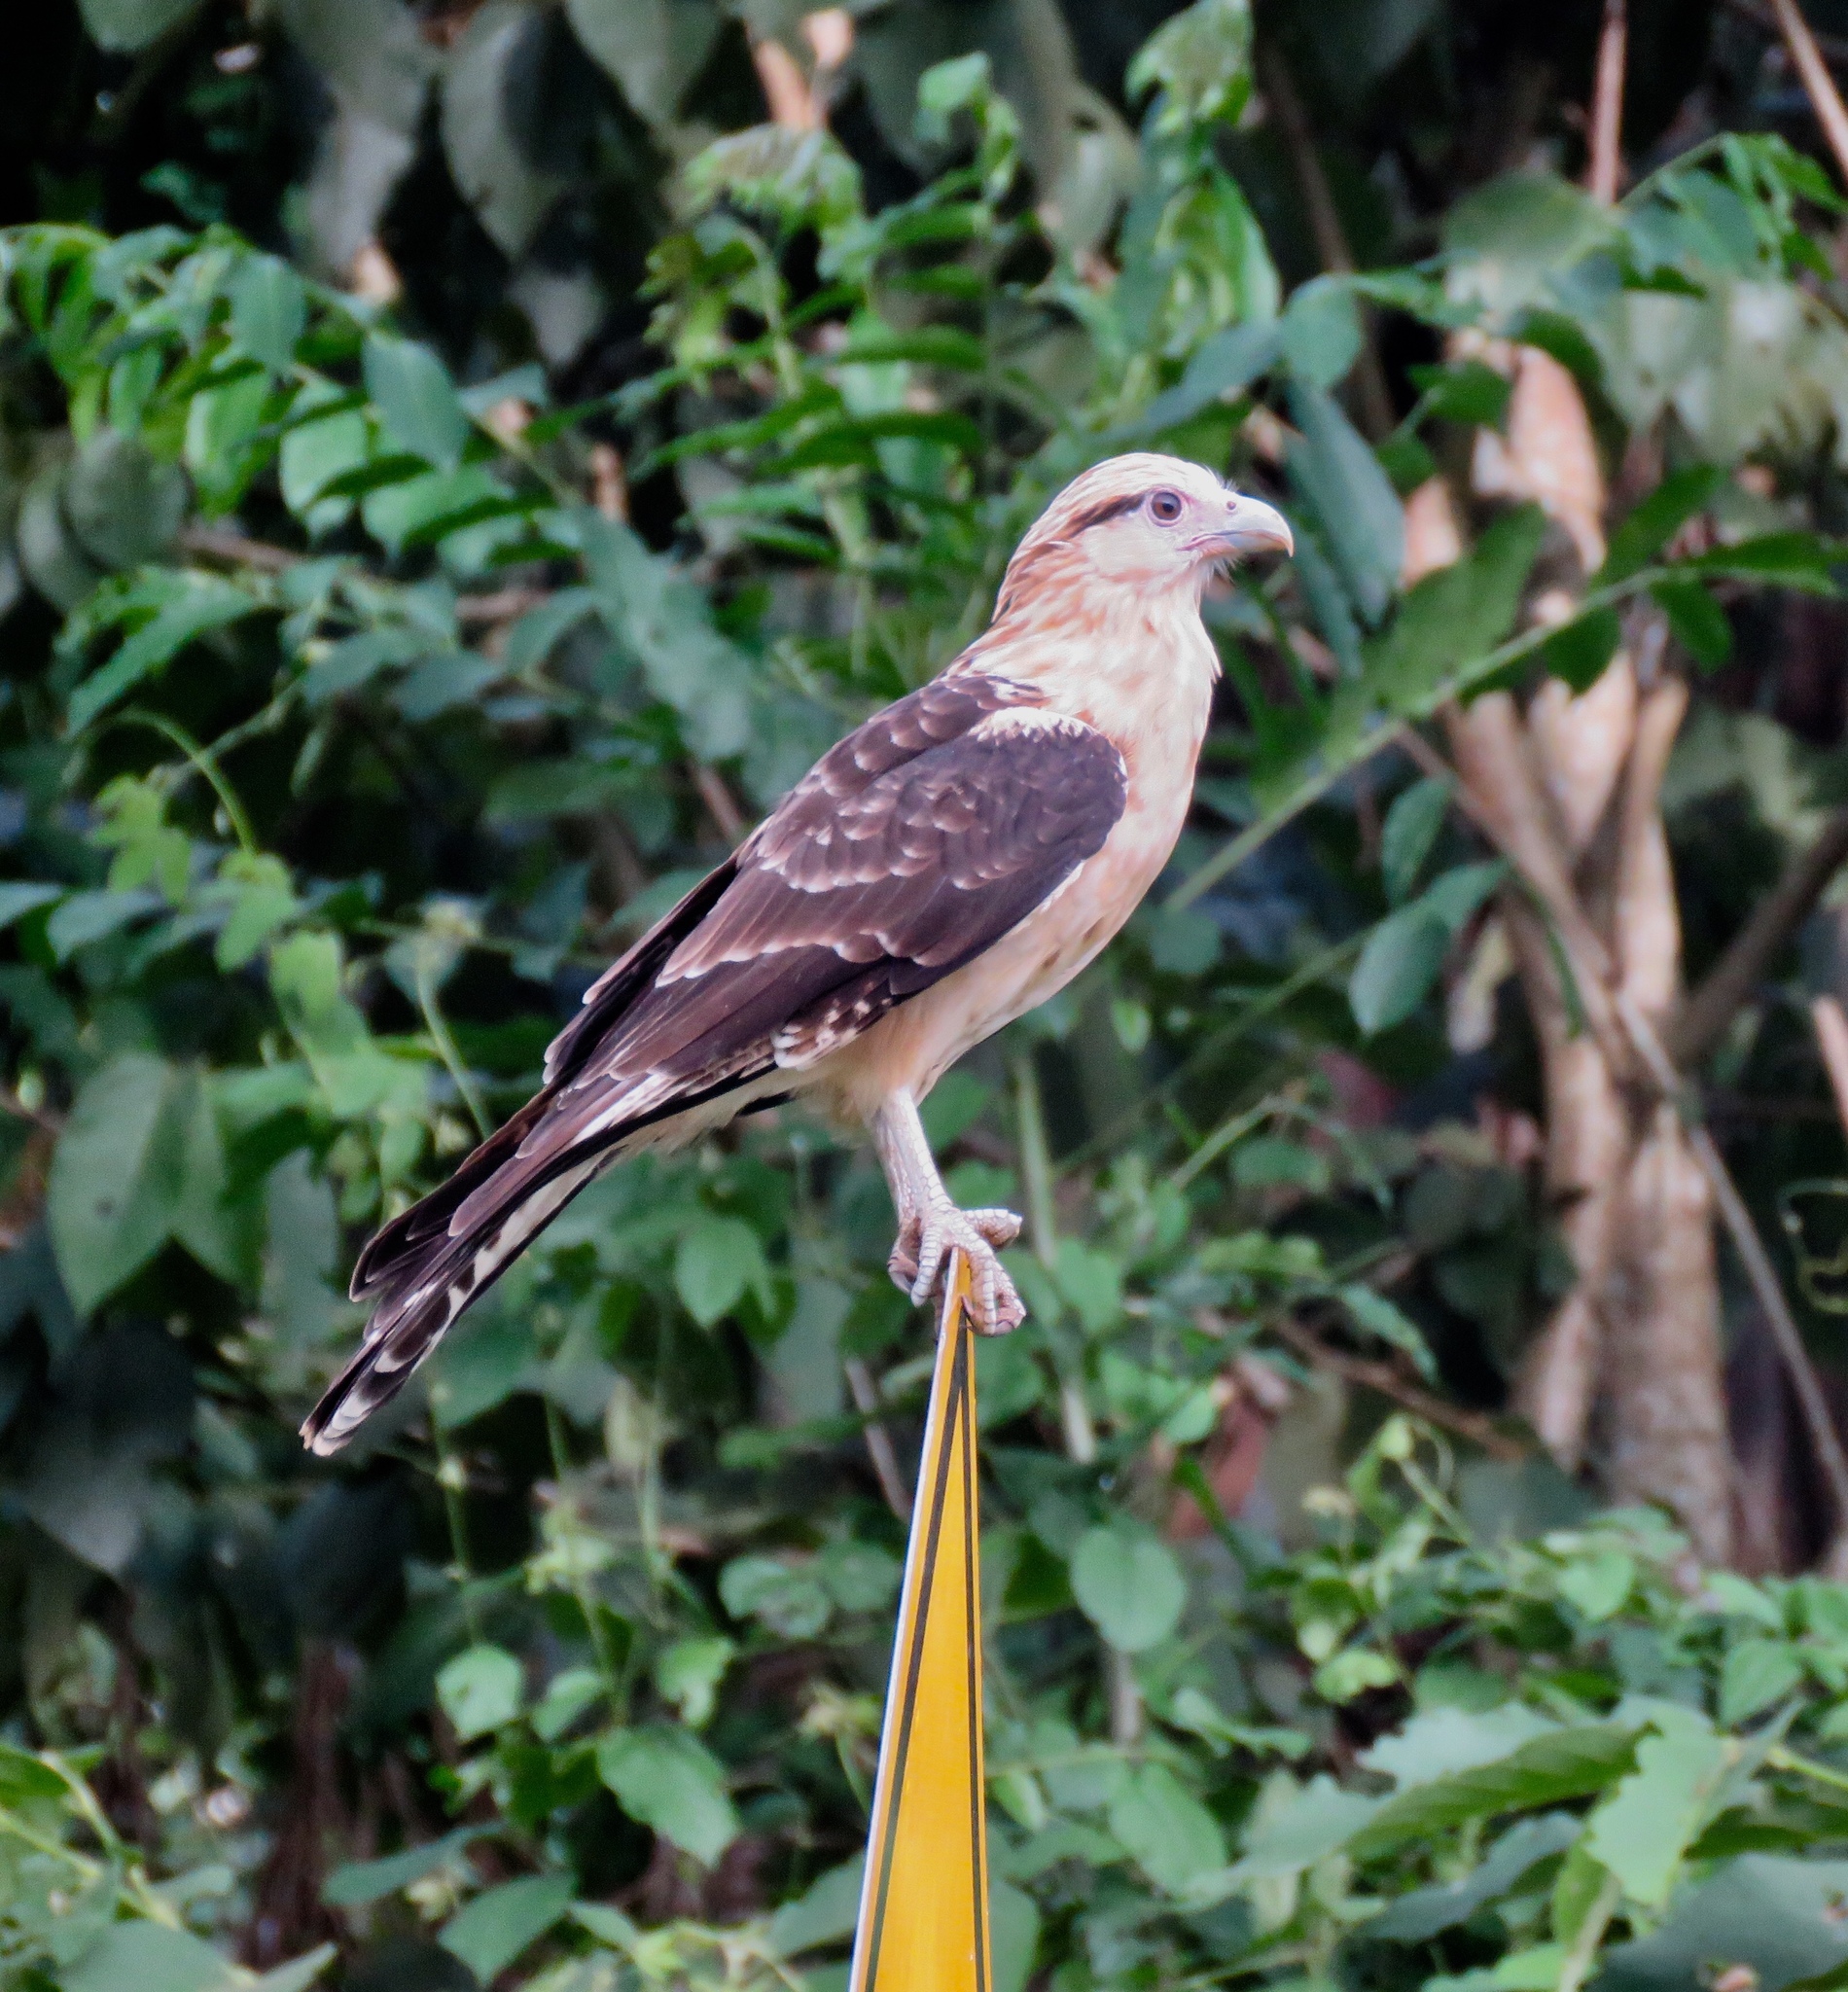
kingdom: Animalia
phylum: Chordata
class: Aves
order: Falconiformes
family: Falconidae
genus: Daptrius
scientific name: Daptrius
